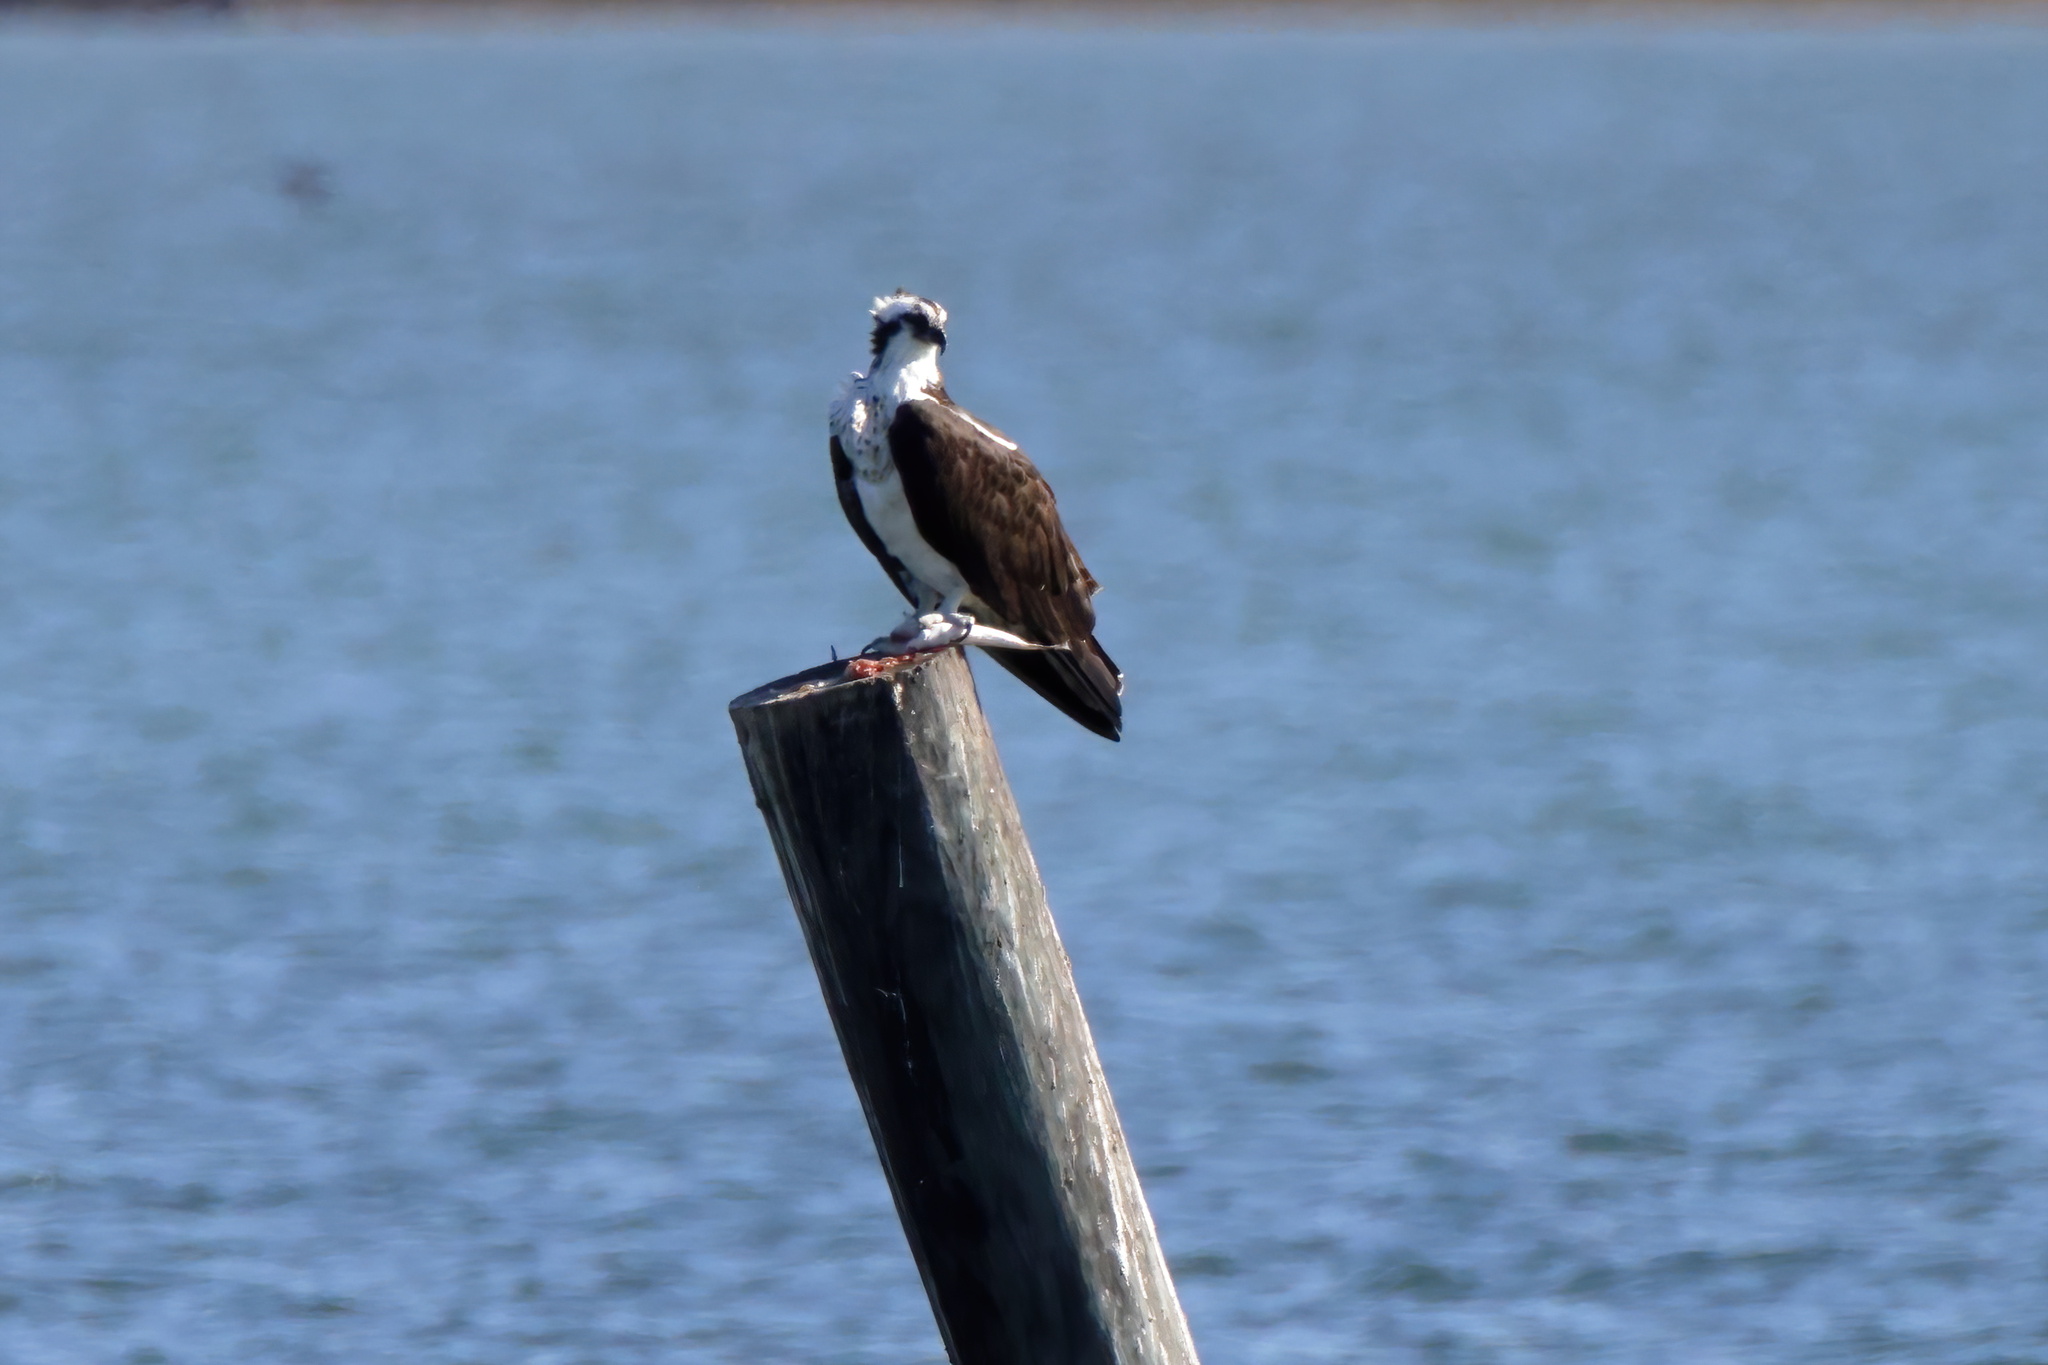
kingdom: Animalia
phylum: Chordata
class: Aves
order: Accipitriformes
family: Pandionidae
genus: Pandion
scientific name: Pandion haliaetus
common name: Osprey
